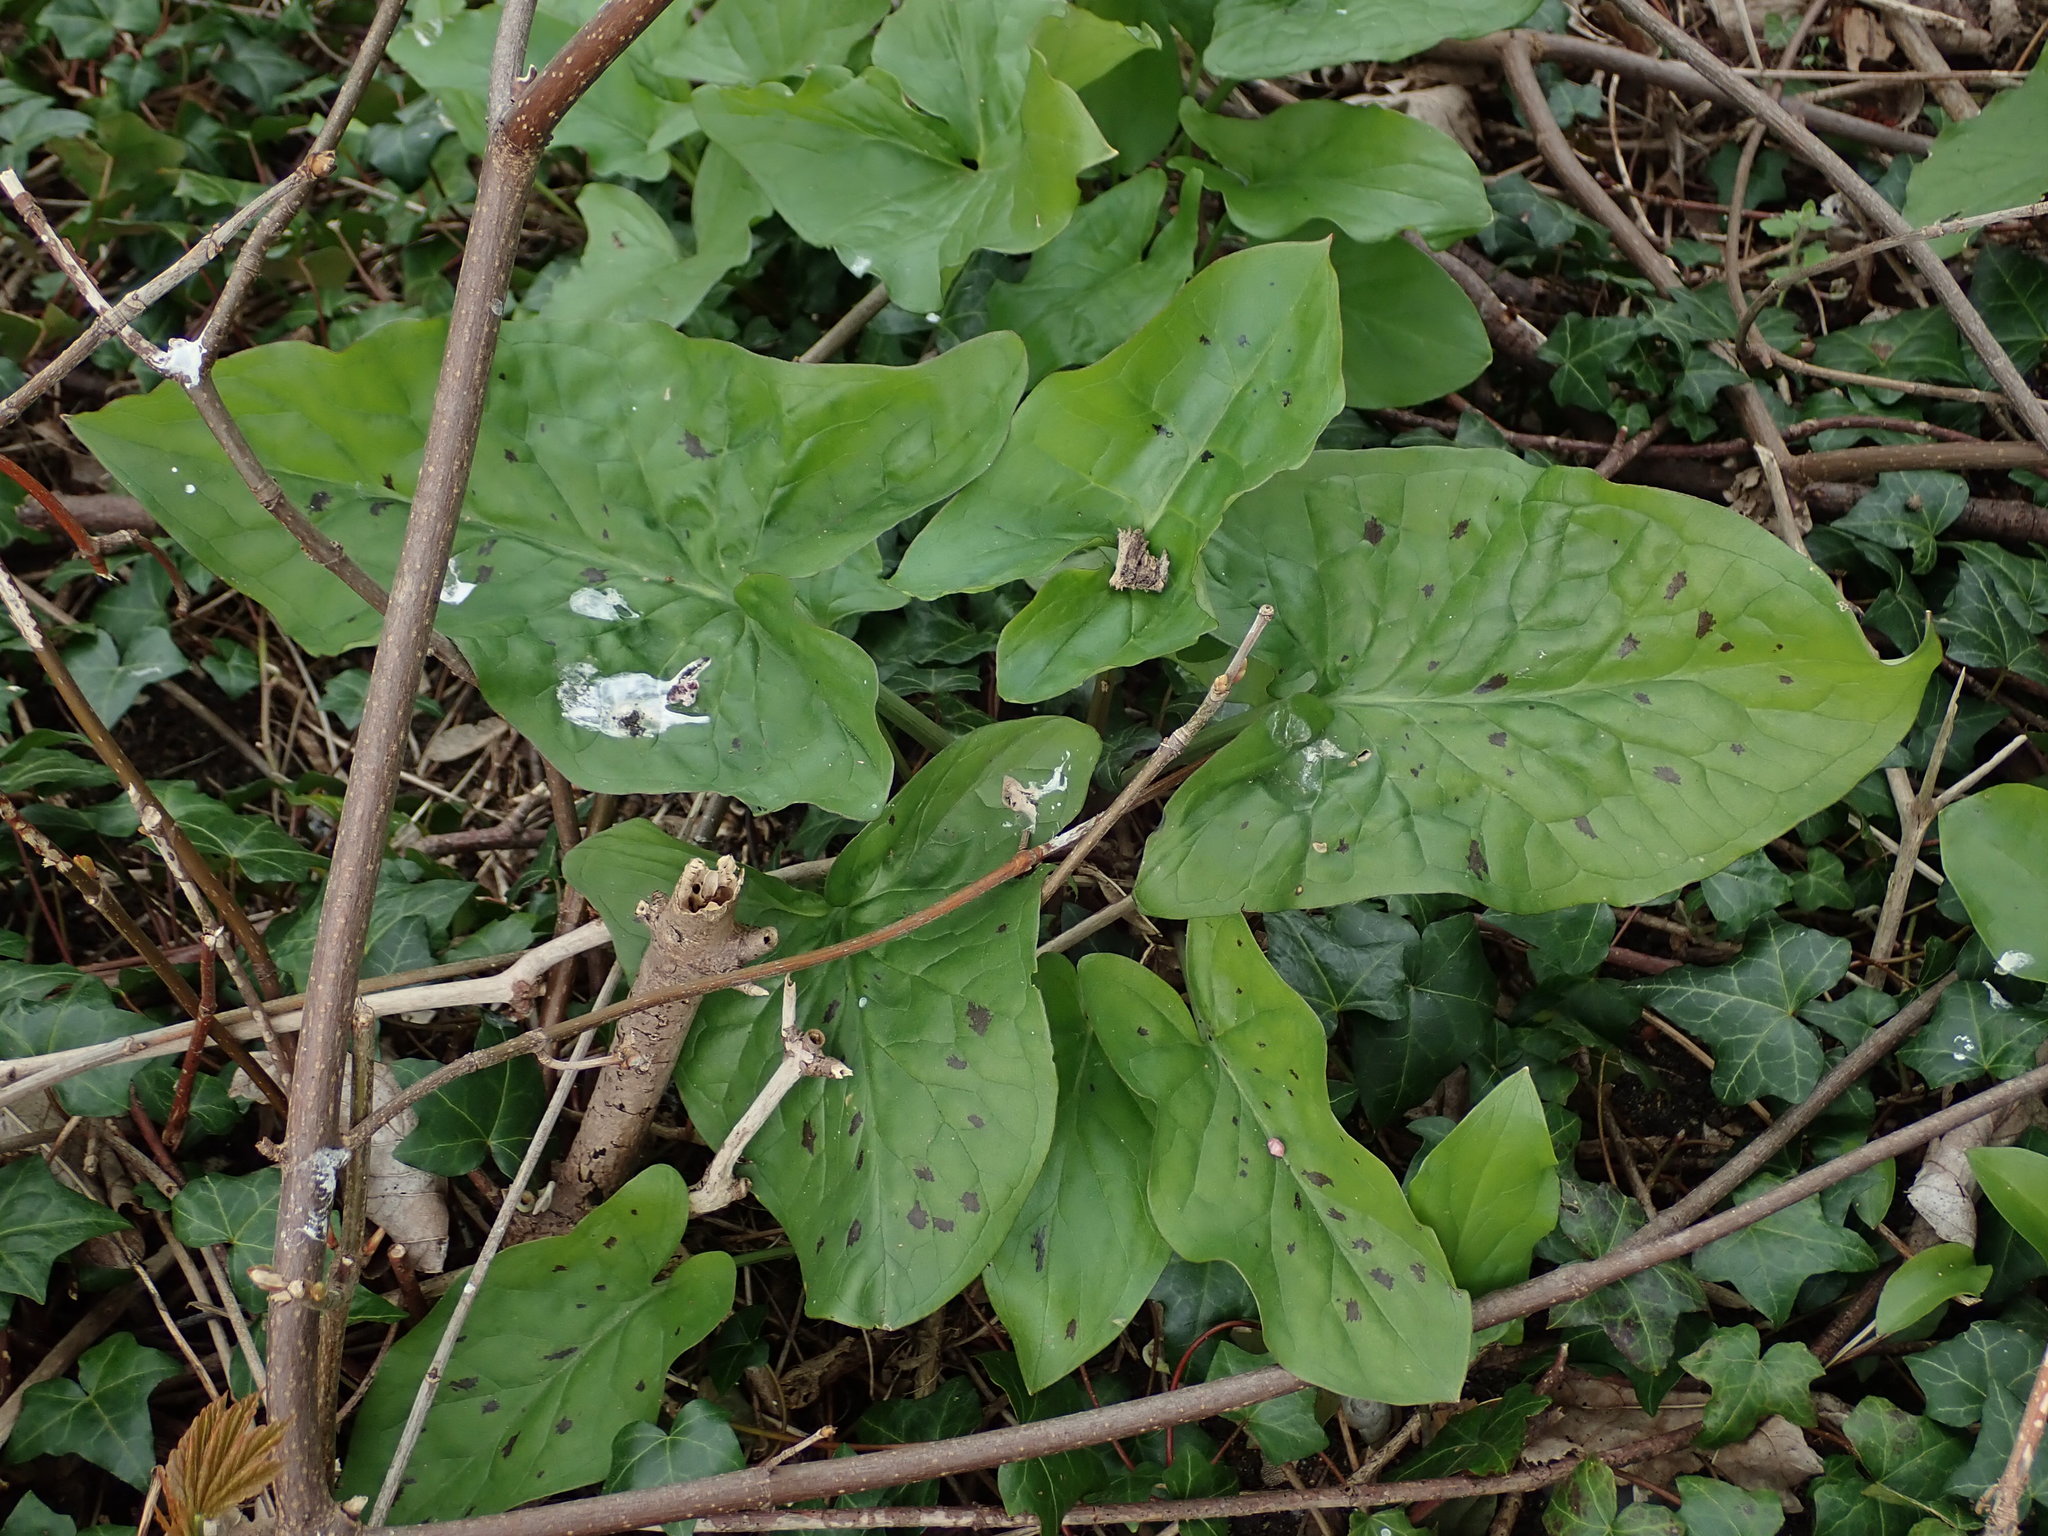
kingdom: Plantae
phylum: Tracheophyta
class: Liliopsida
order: Alismatales
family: Araceae
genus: Arum
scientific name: Arum maculatum
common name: Lords-and-ladies
